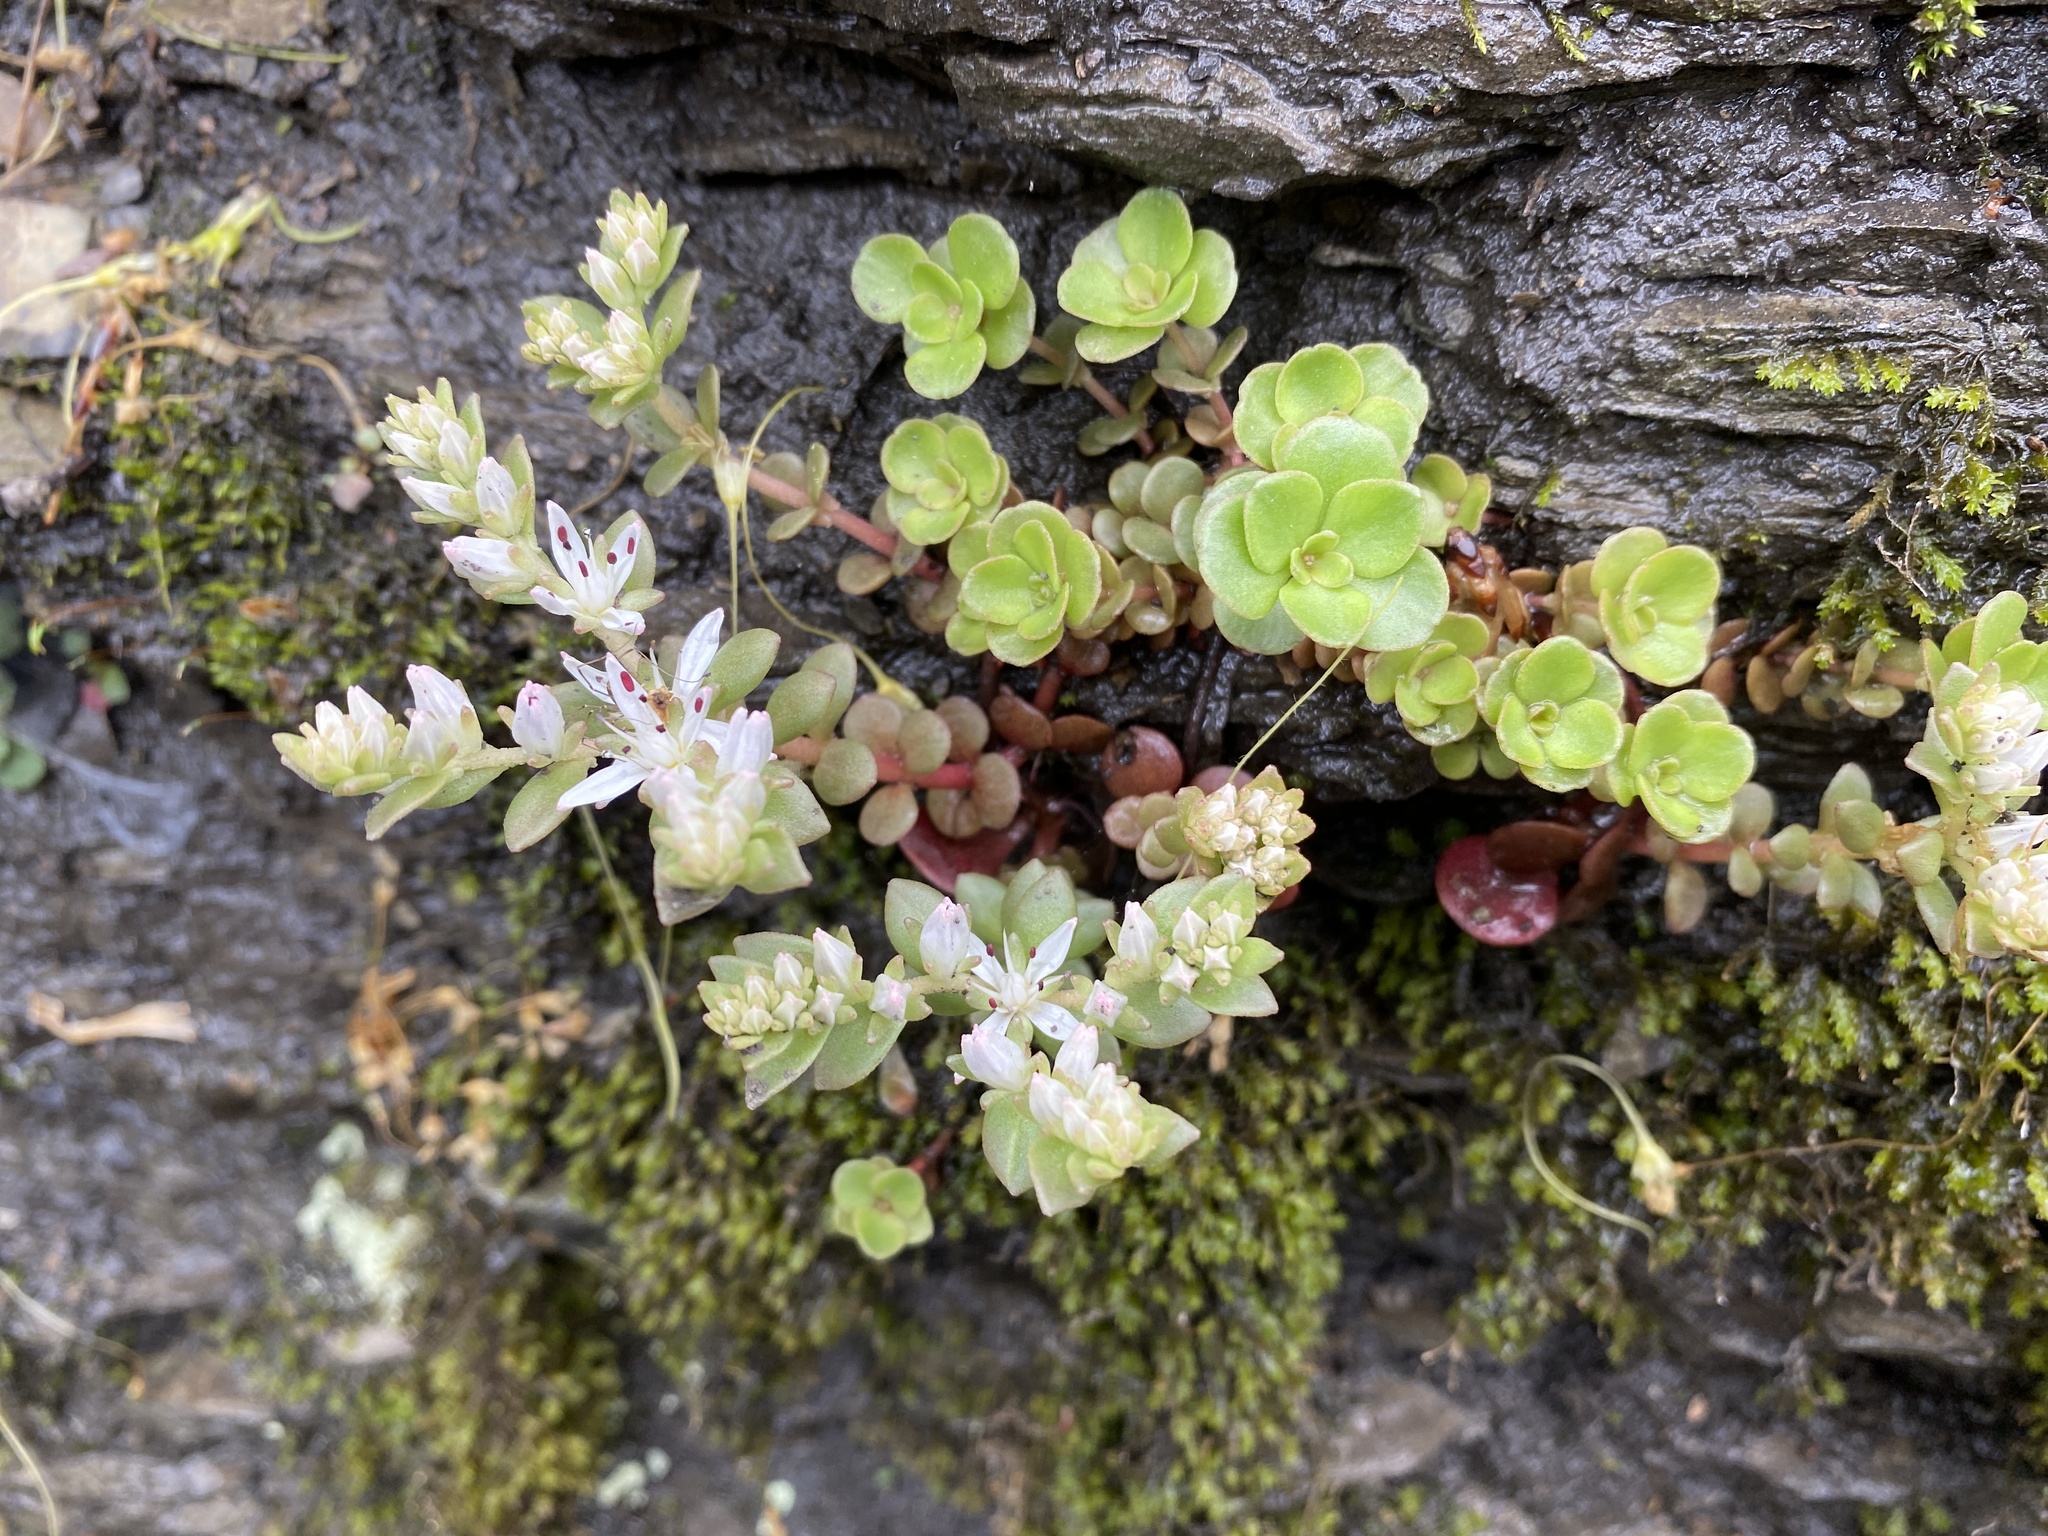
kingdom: Plantae
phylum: Tracheophyta
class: Magnoliopsida
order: Saxifragales
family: Crassulaceae
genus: Sedum
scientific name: Sedum ternatum
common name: Wild stonecrop
